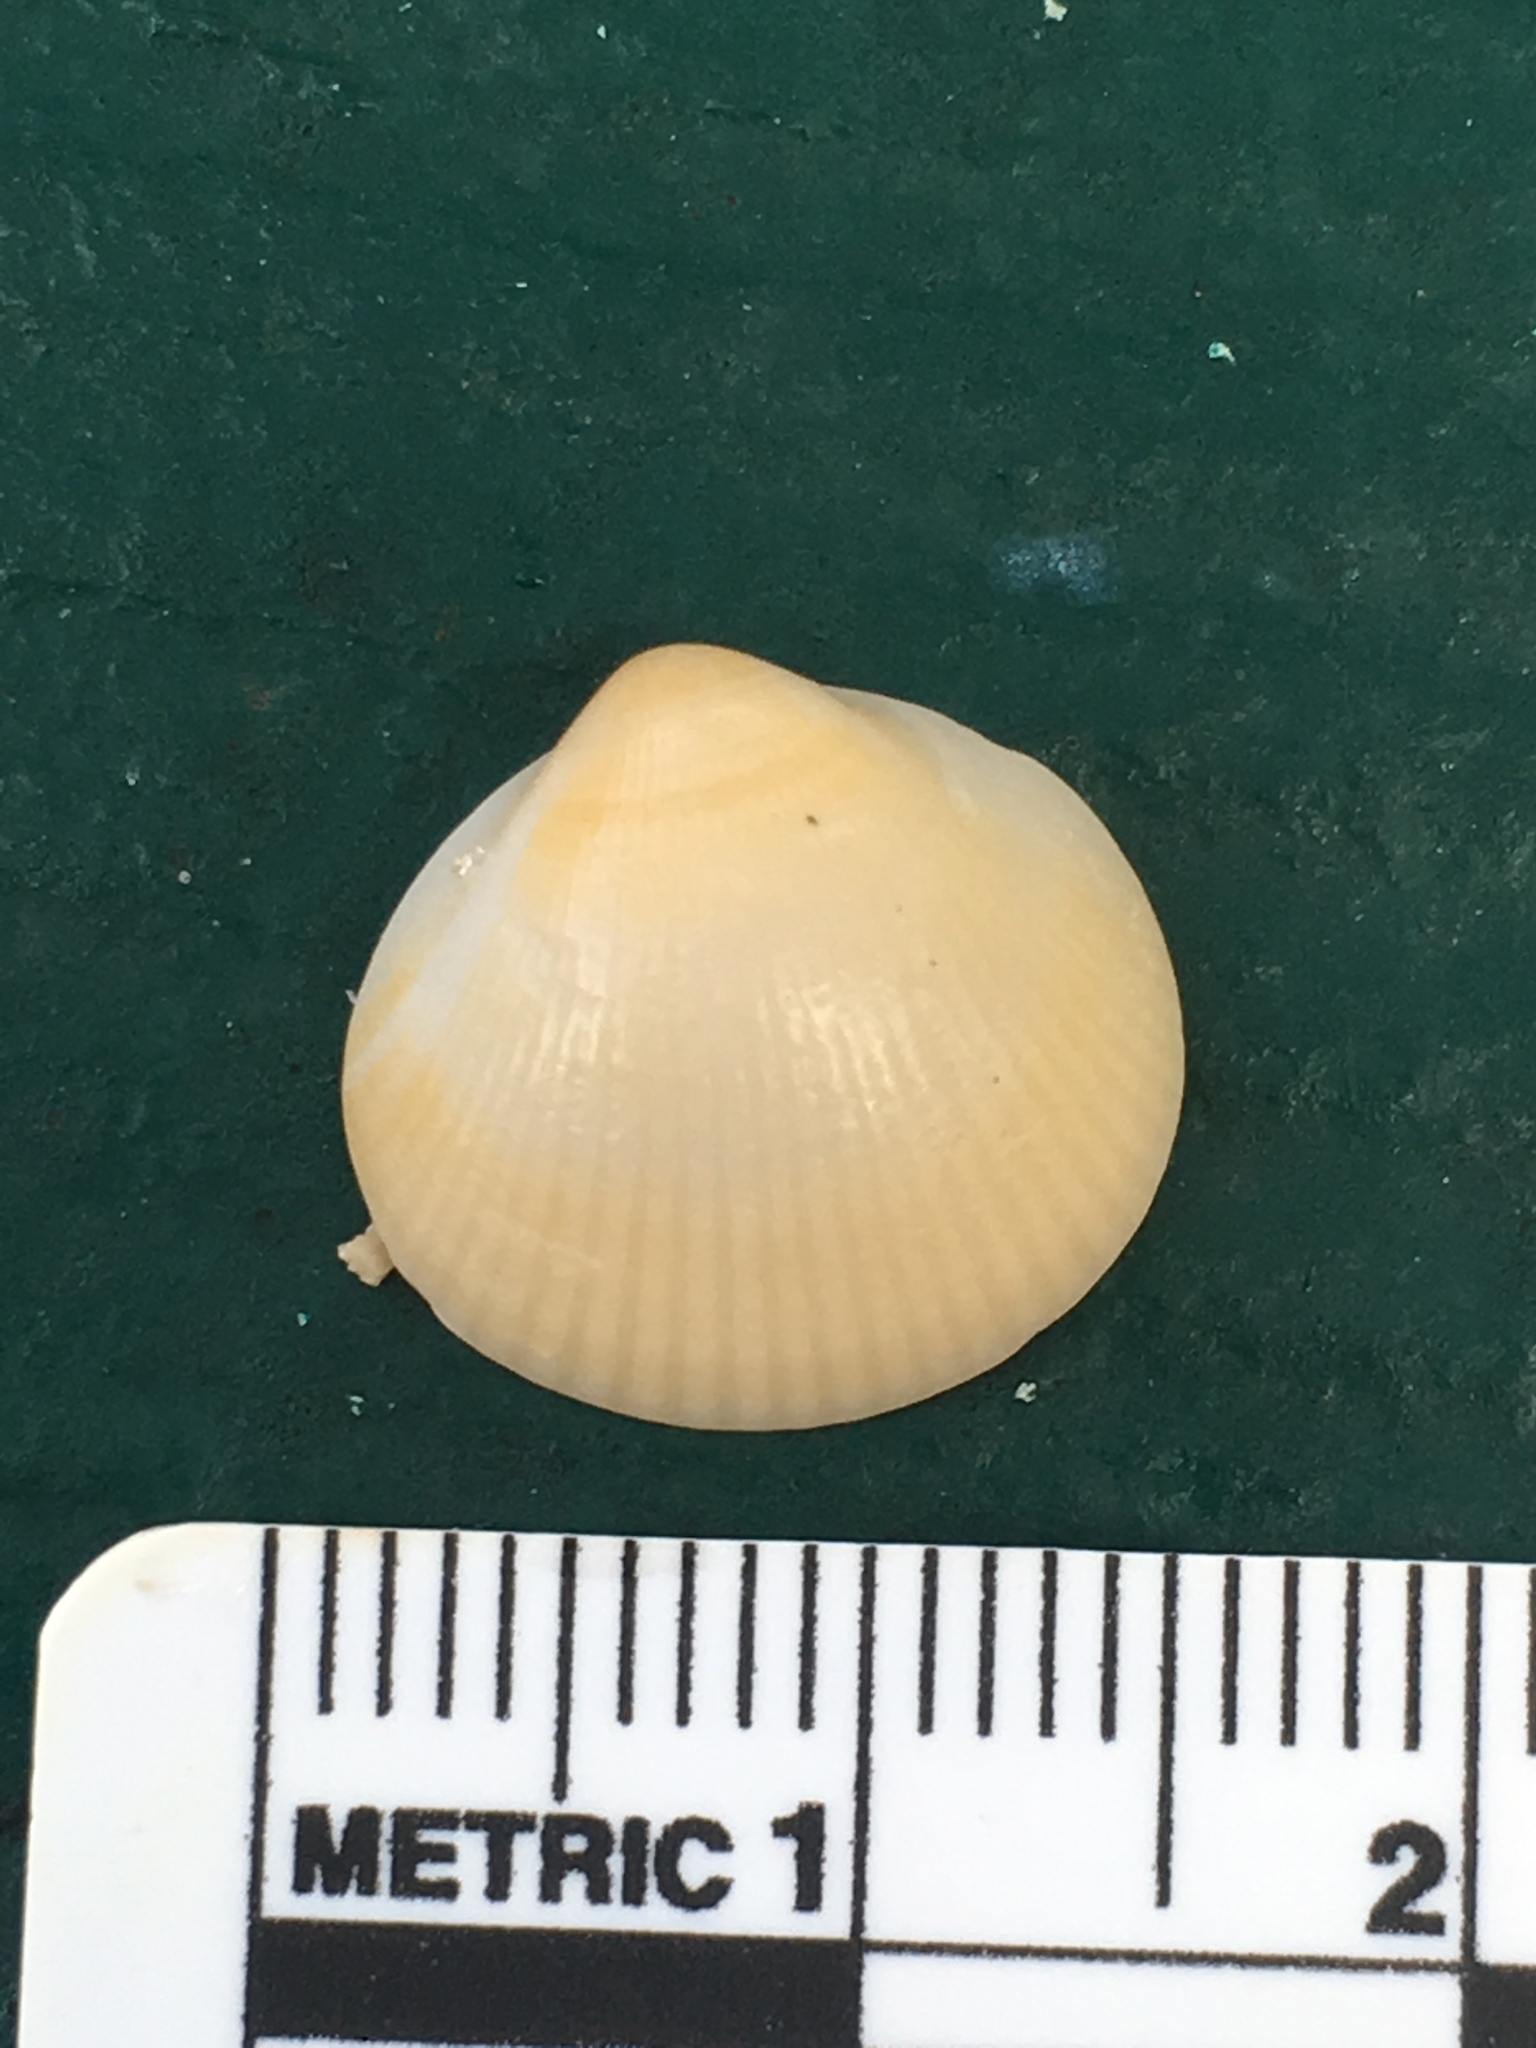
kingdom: Animalia
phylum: Mollusca
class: Bivalvia
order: Arcida
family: Glycymerididae
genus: Glycymeris
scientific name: Glycymeris spectralis
